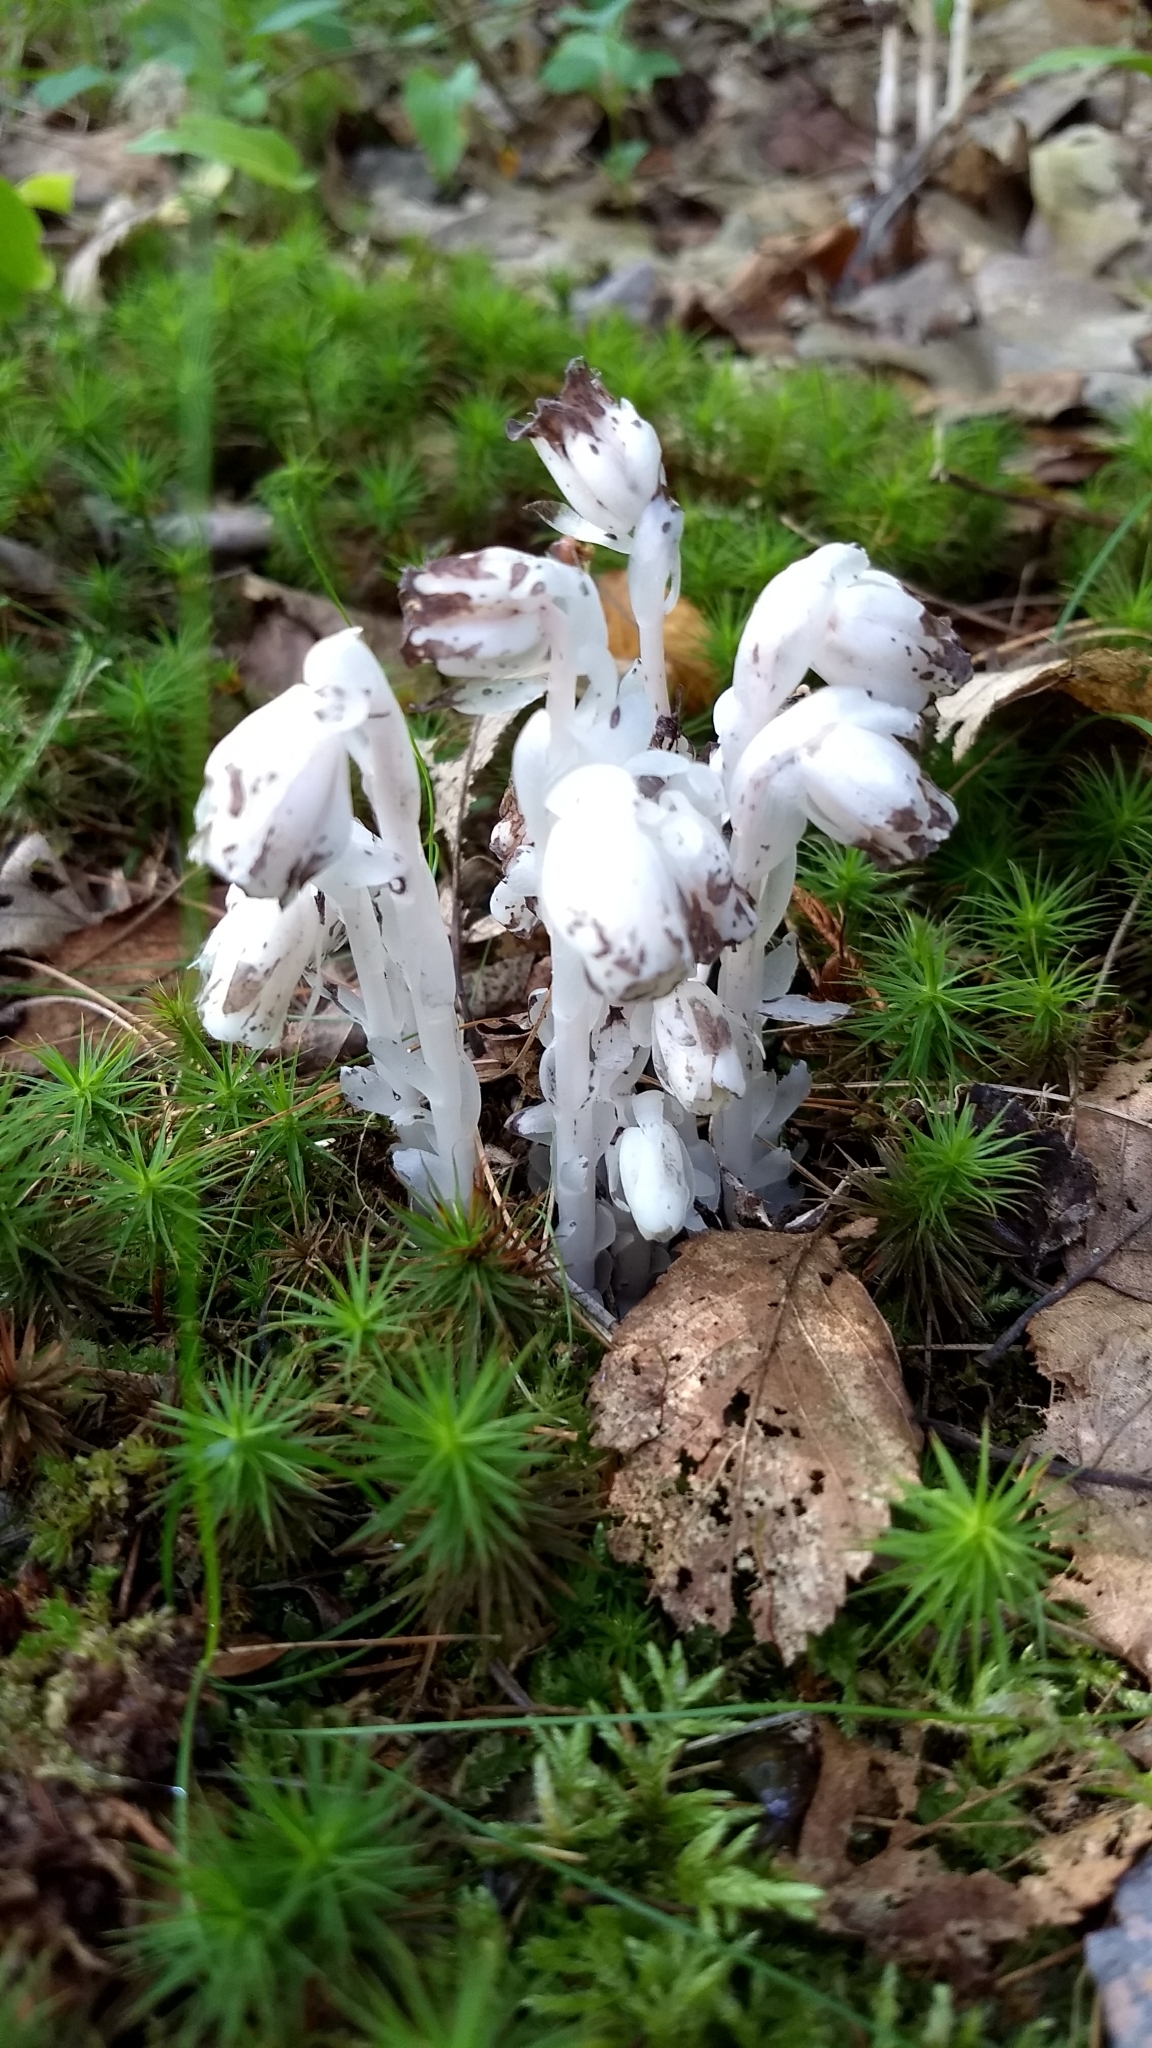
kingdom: Plantae
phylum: Tracheophyta
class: Magnoliopsida
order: Ericales
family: Ericaceae
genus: Monotropa
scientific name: Monotropa uniflora
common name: Convulsion root
